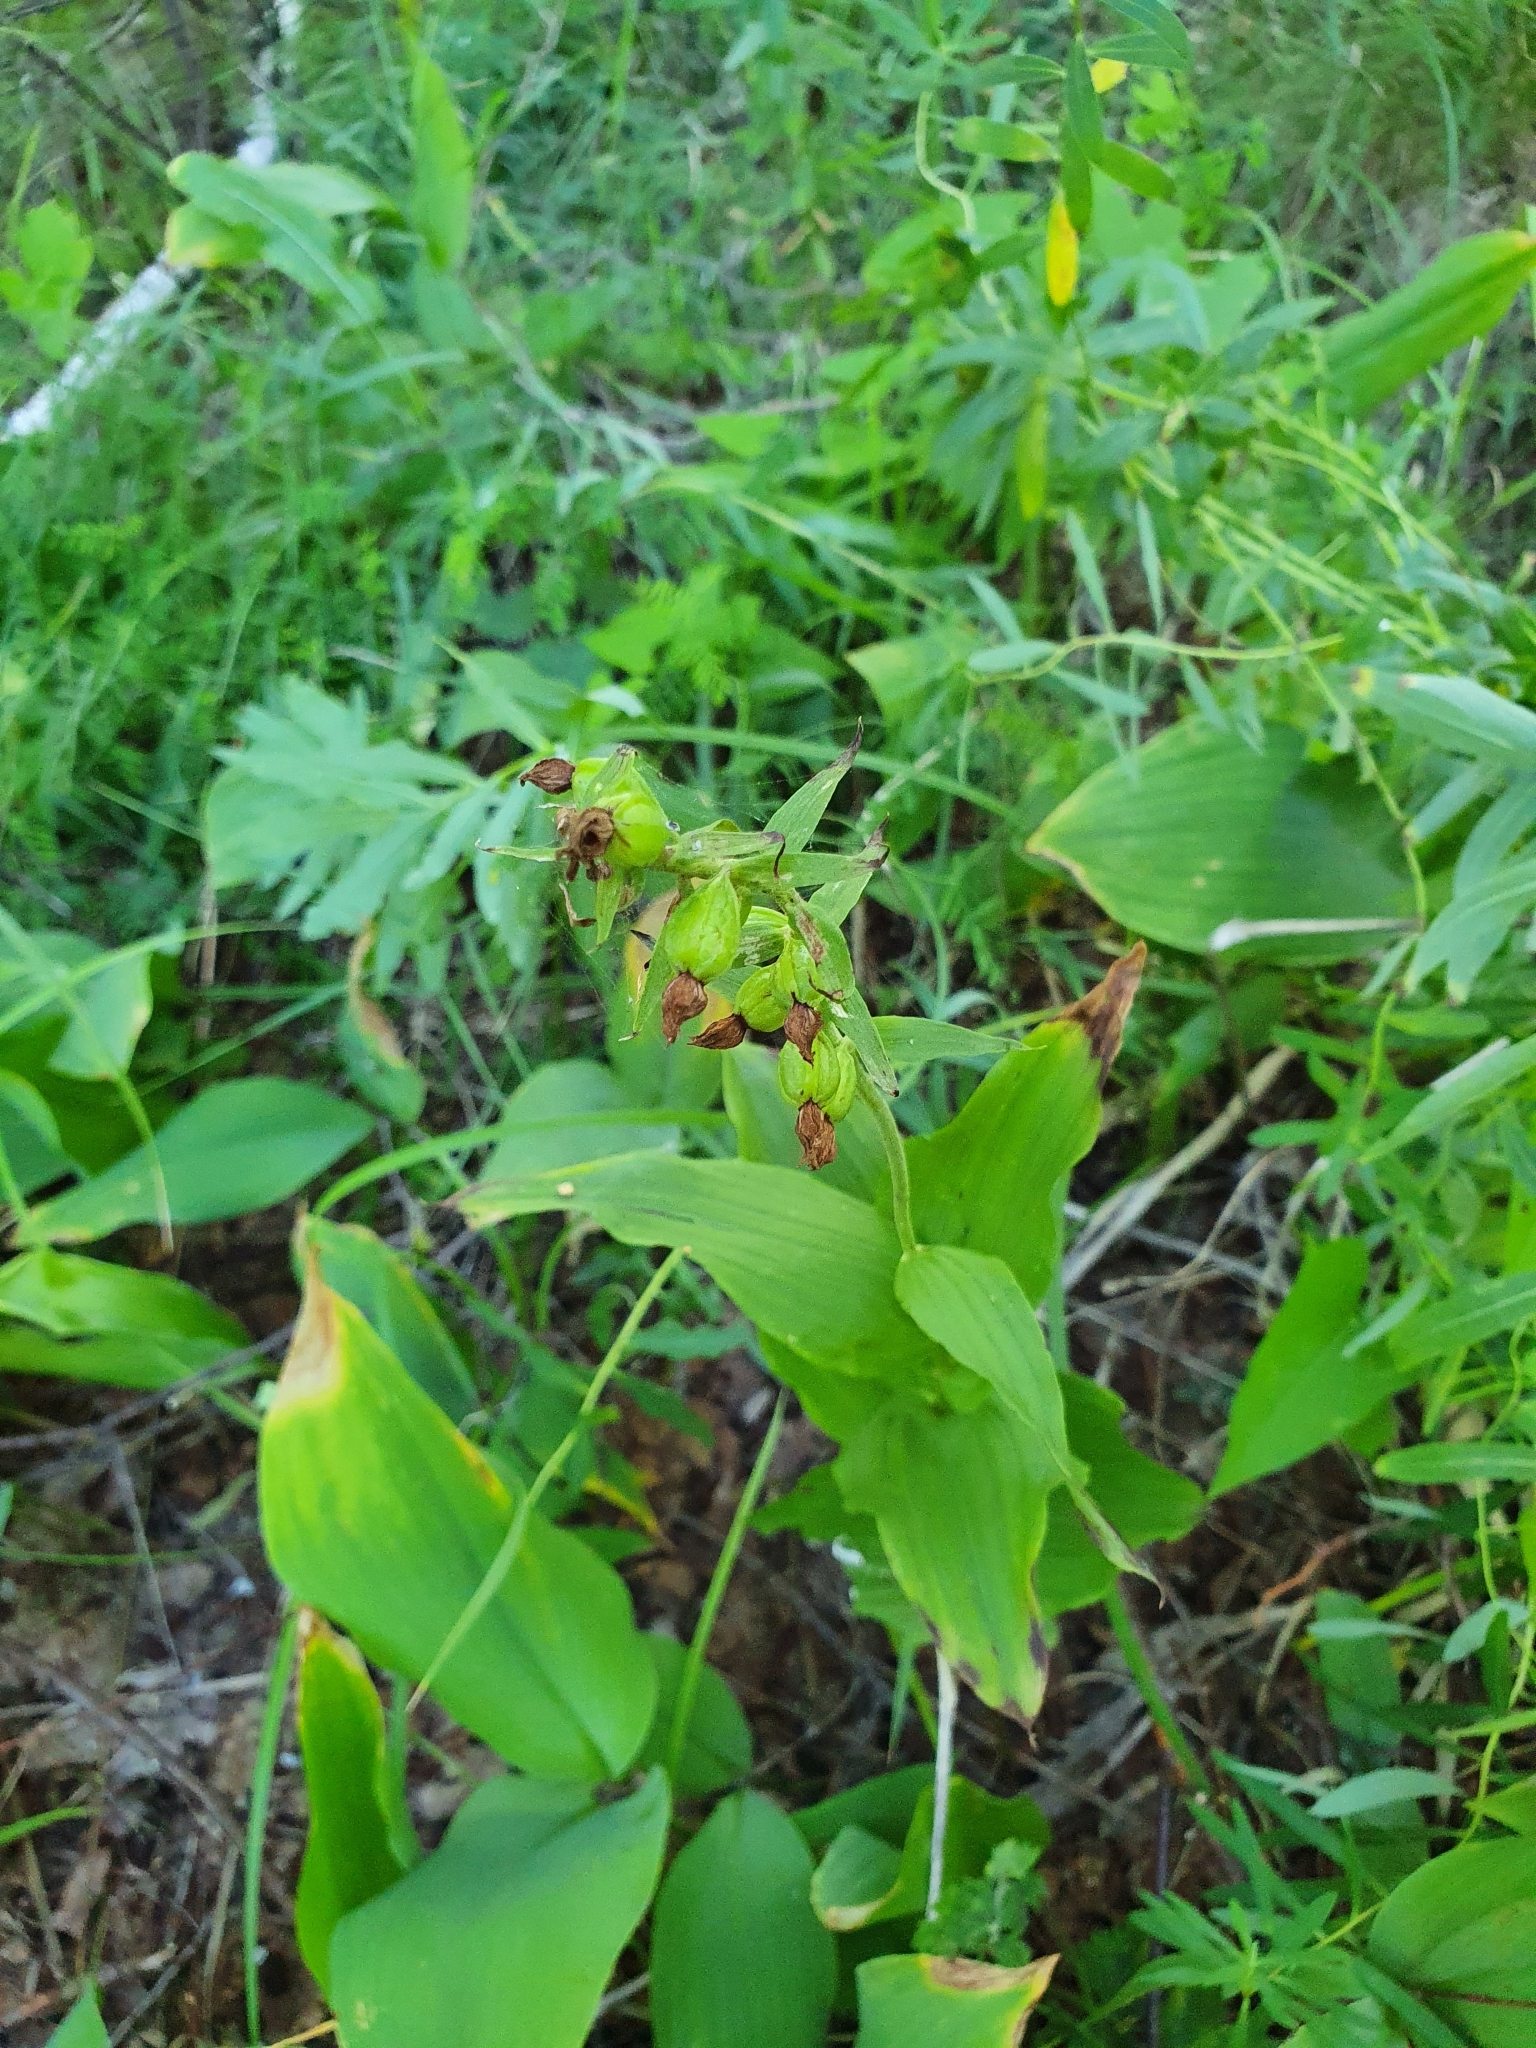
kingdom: Plantae
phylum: Tracheophyta
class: Liliopsida
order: Asparagales
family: Orchidaceae
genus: Epipactis
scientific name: Epipactis helleborine
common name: Broad-leaved helleborine
